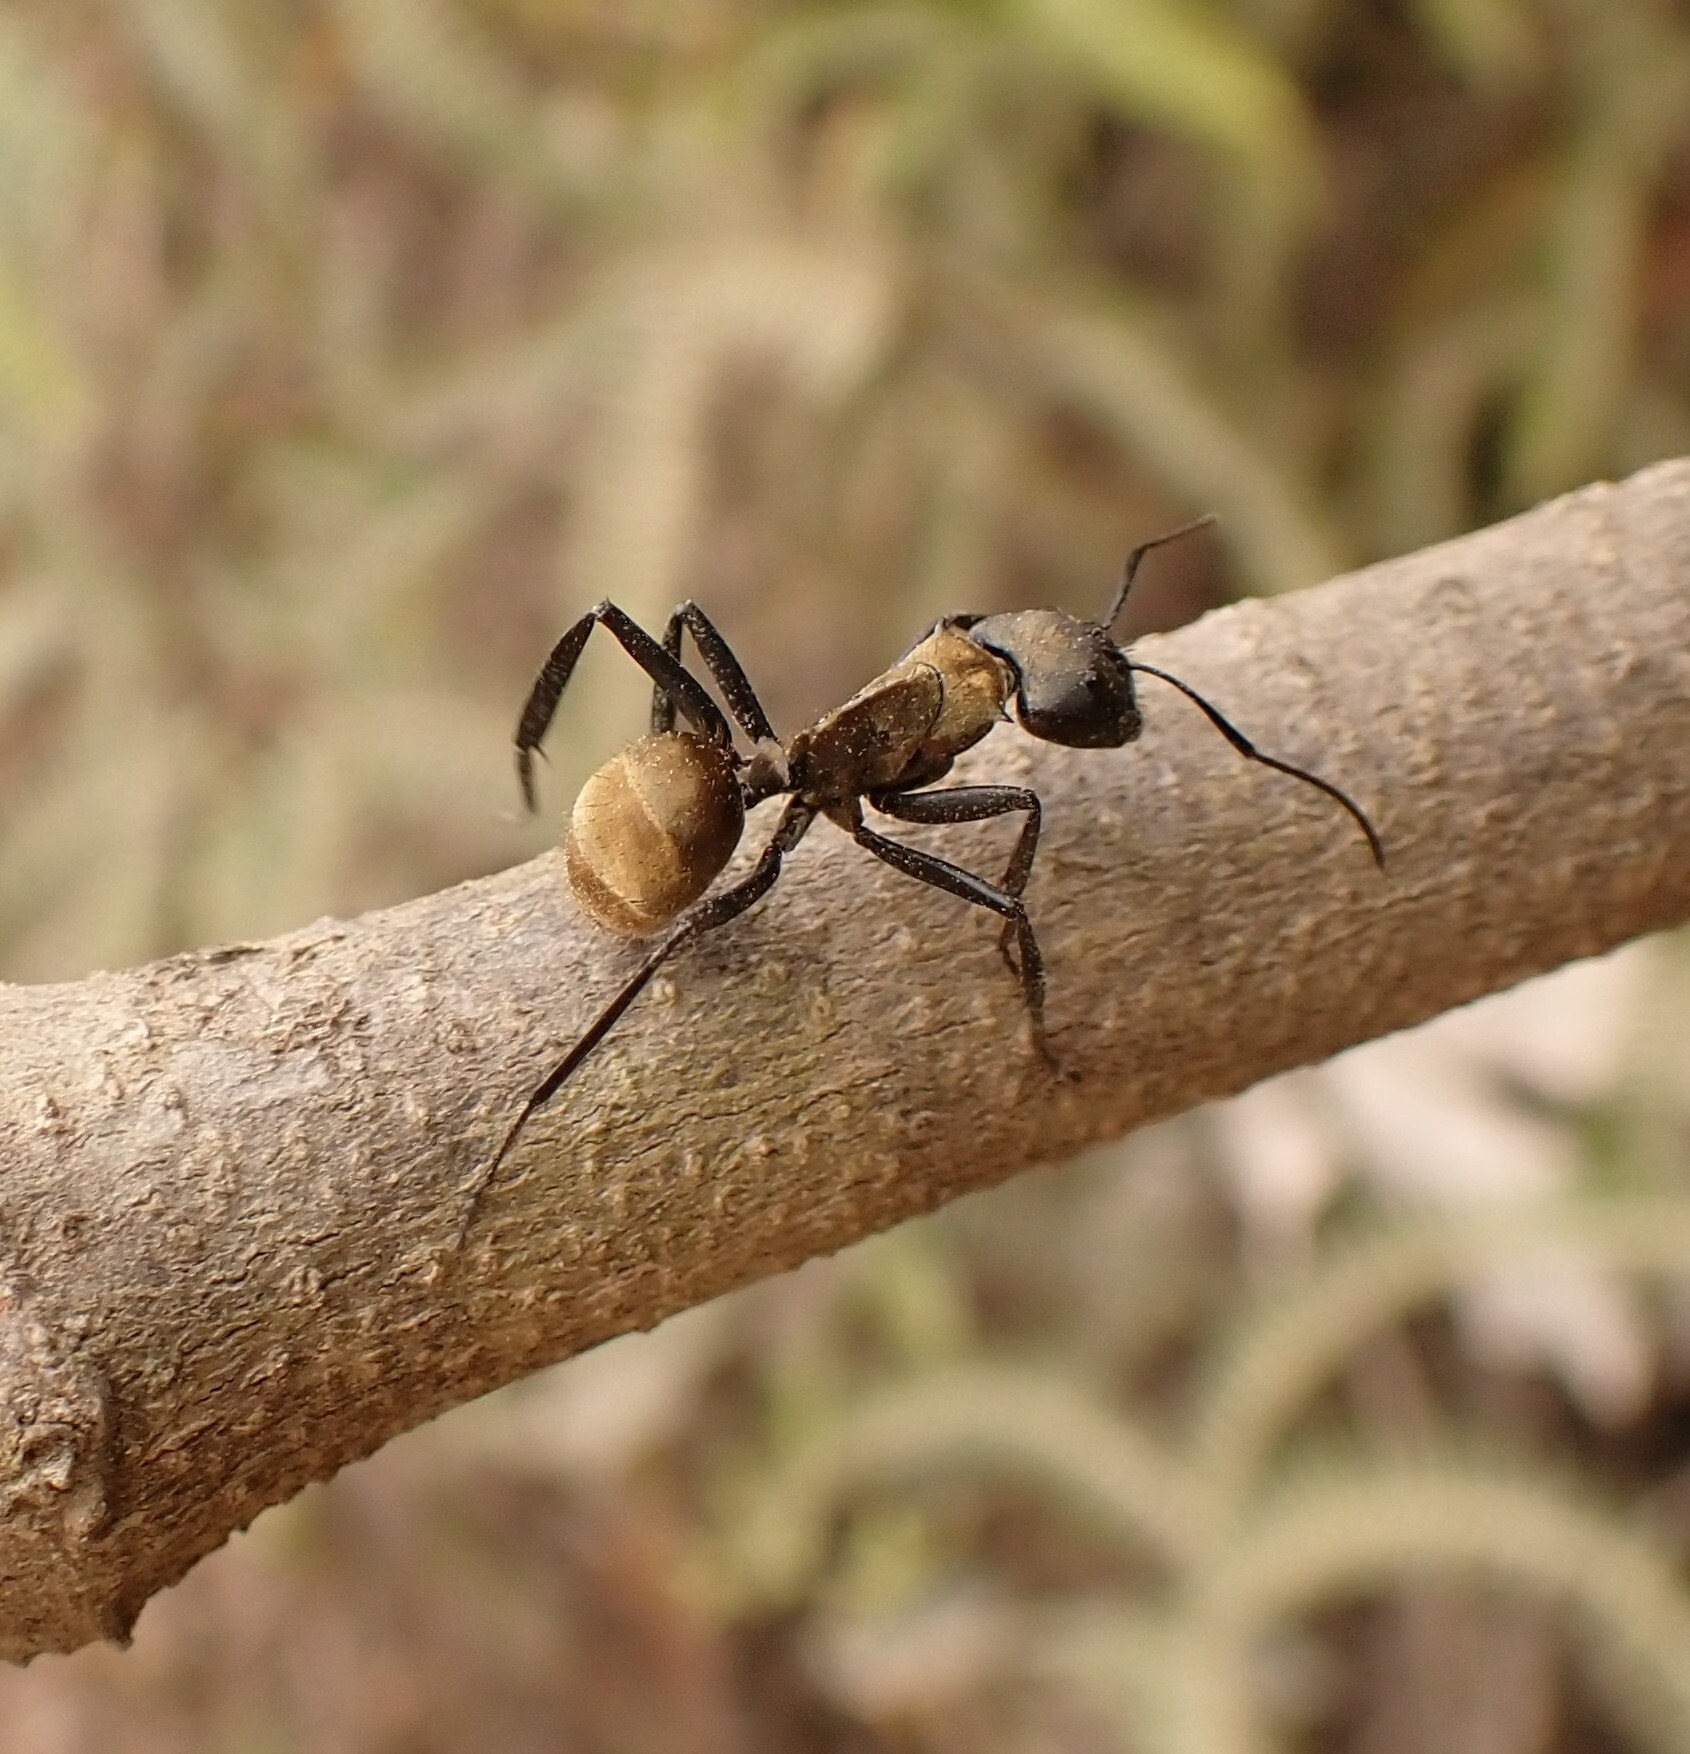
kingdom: Animalia
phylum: Arthropoda
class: Insecta
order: Hymenoptera
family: Formicidae
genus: Camponotus
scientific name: Camponotus sericeiventris
